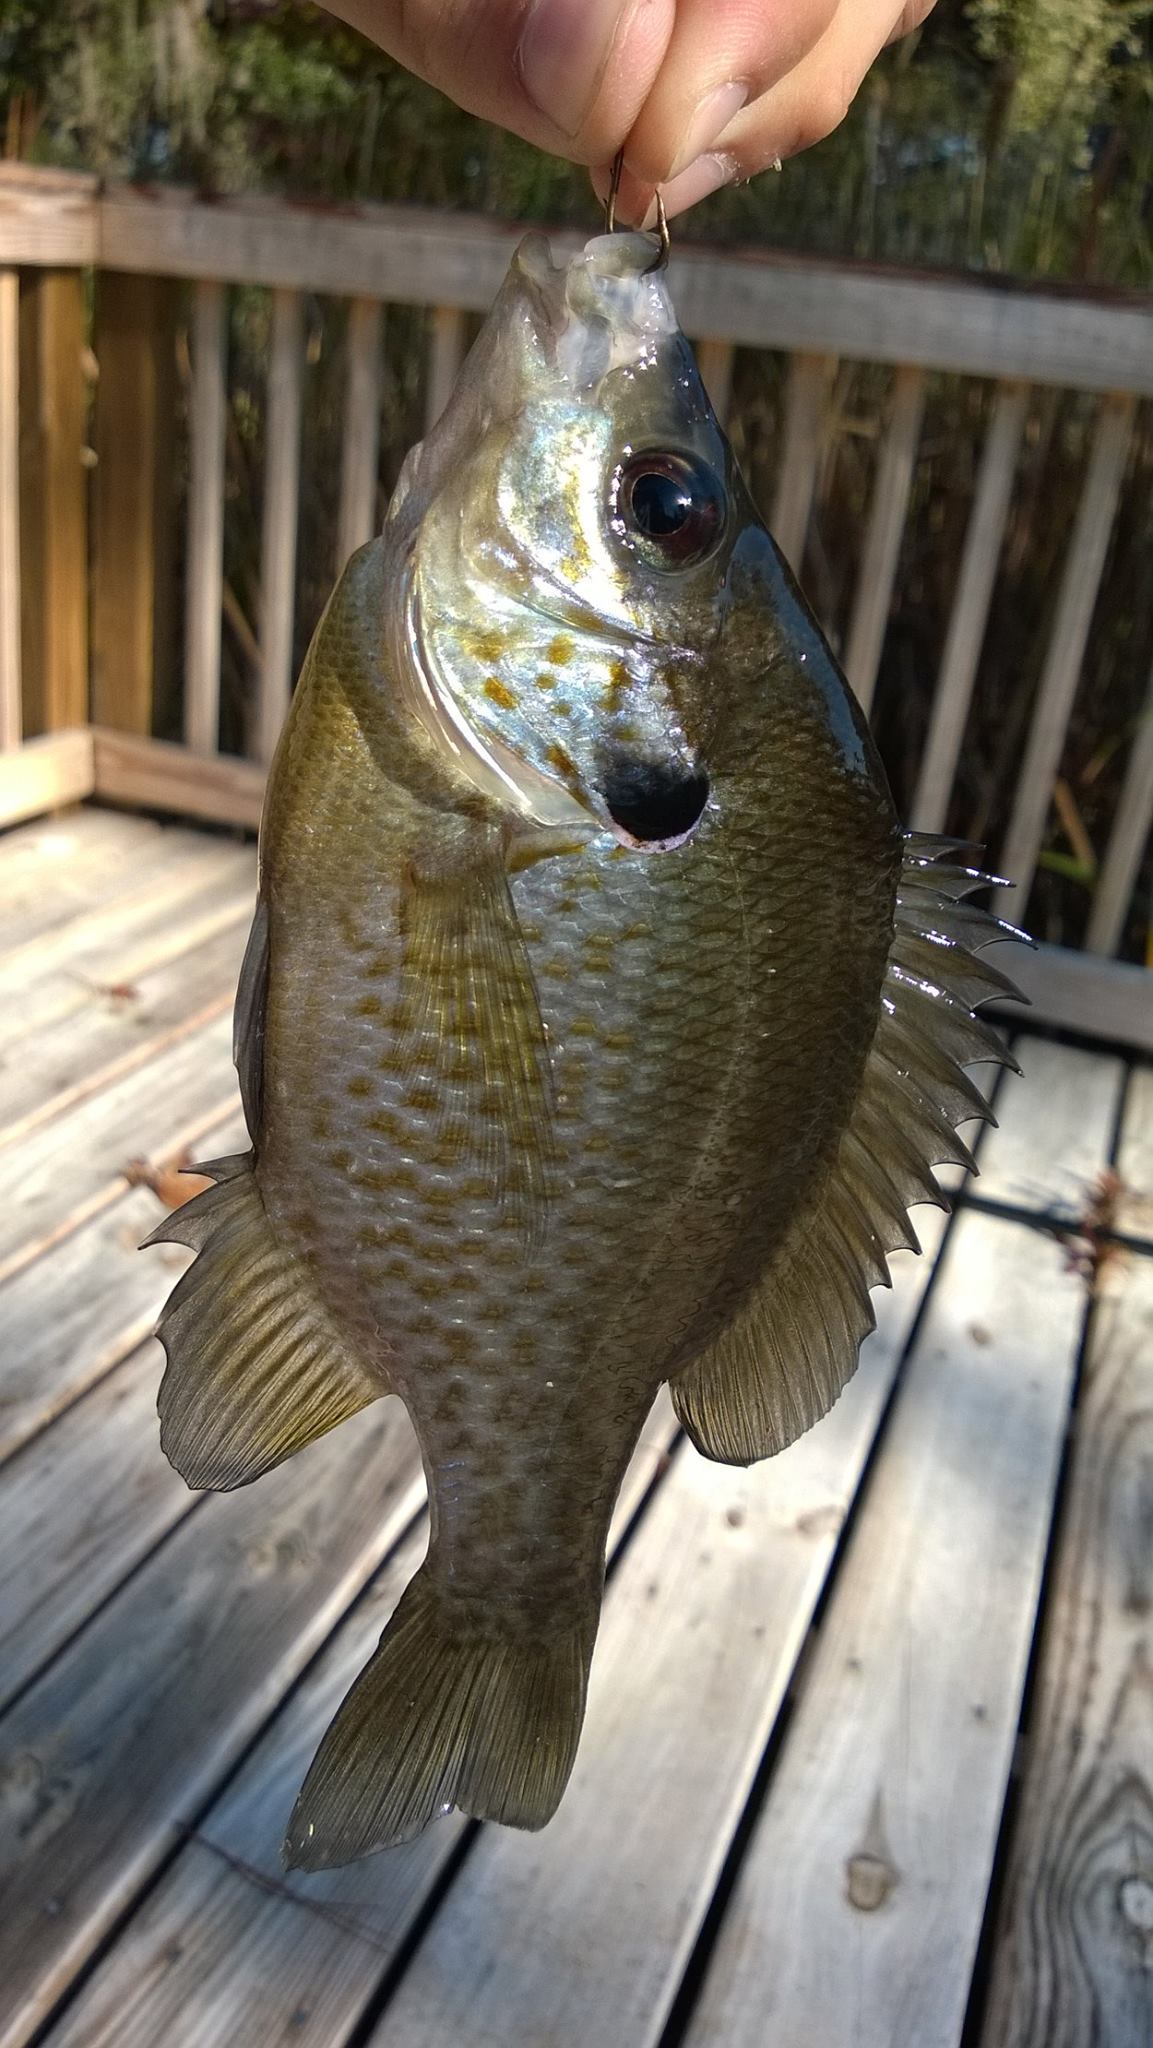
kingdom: Animalia
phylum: Chordata
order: Perciformes
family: Centrarchidae
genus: Lepomis
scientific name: Lepomis
